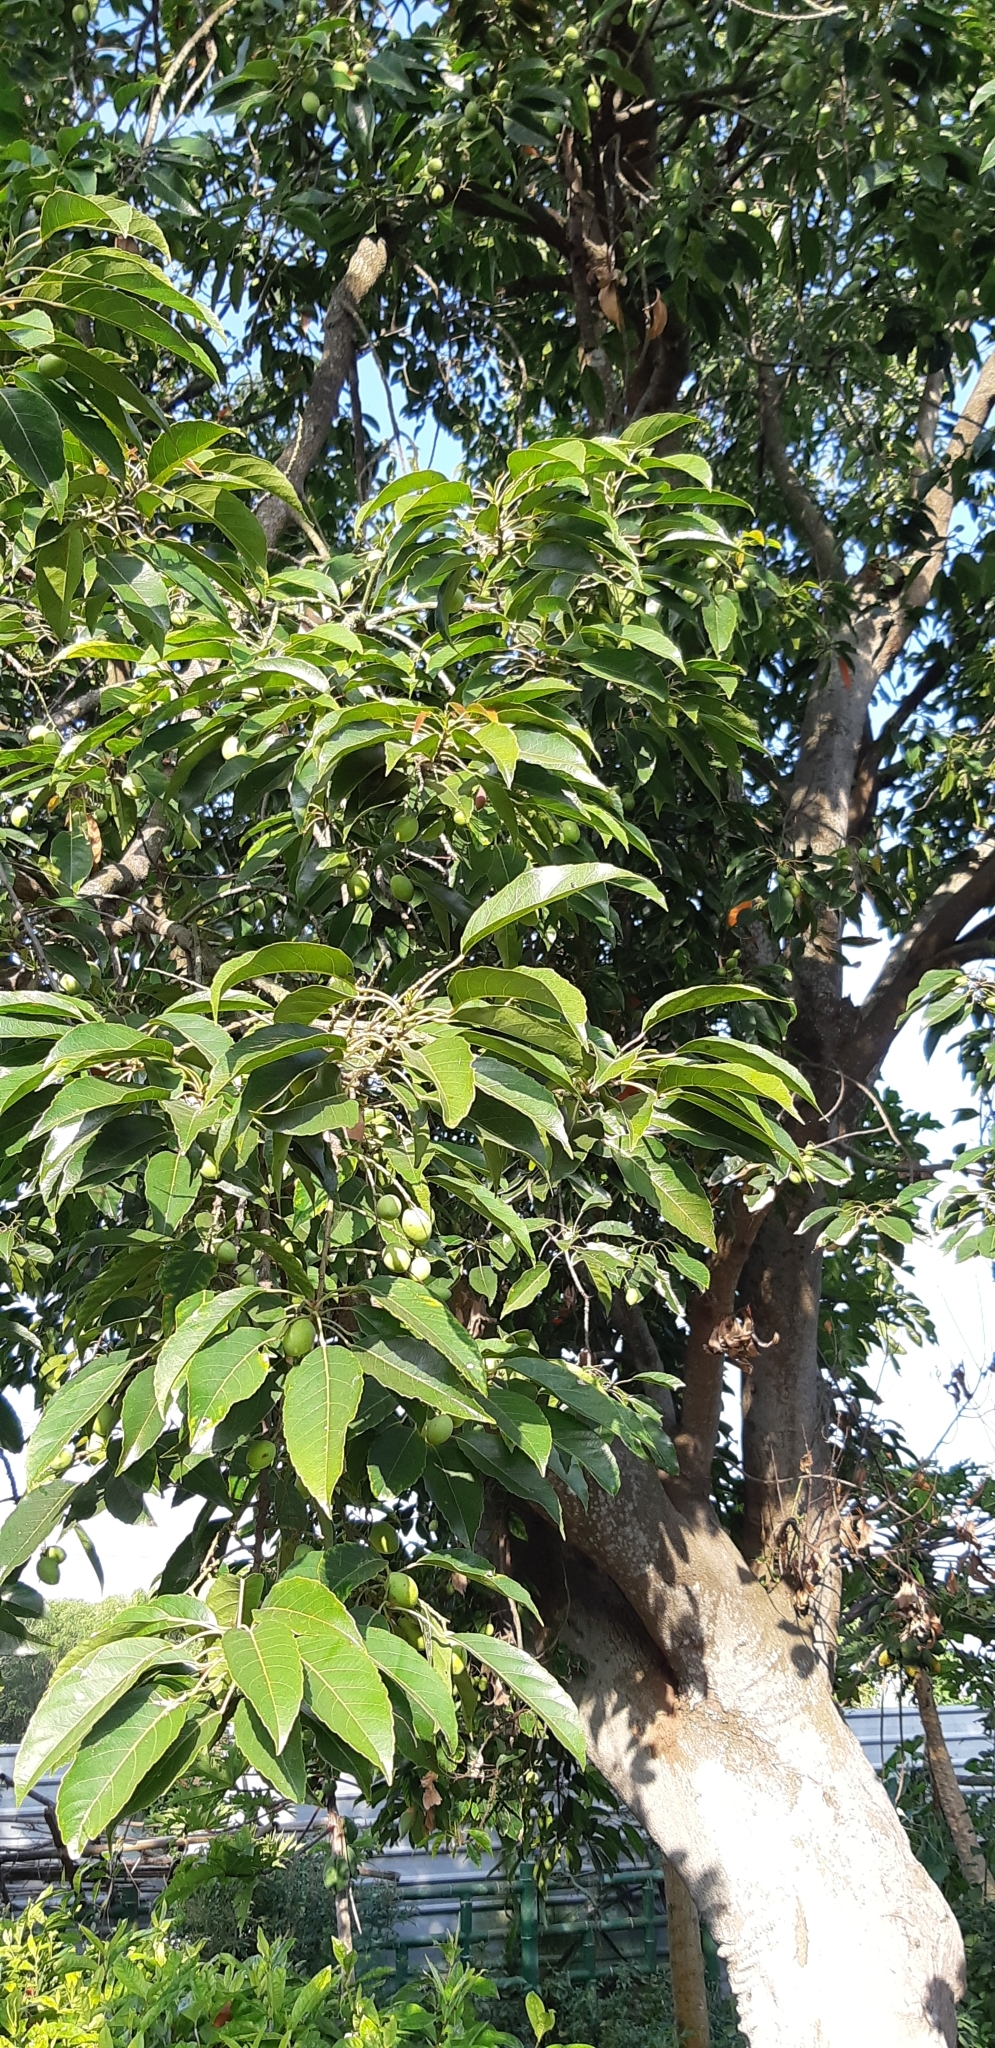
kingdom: Plantae
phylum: Tracheophyta
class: Magnoliopsida
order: Oxalidales
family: Elaeocarpaceae
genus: Elaeocarpus
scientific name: Elaeocarpus serratus
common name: Ceylon-olive
